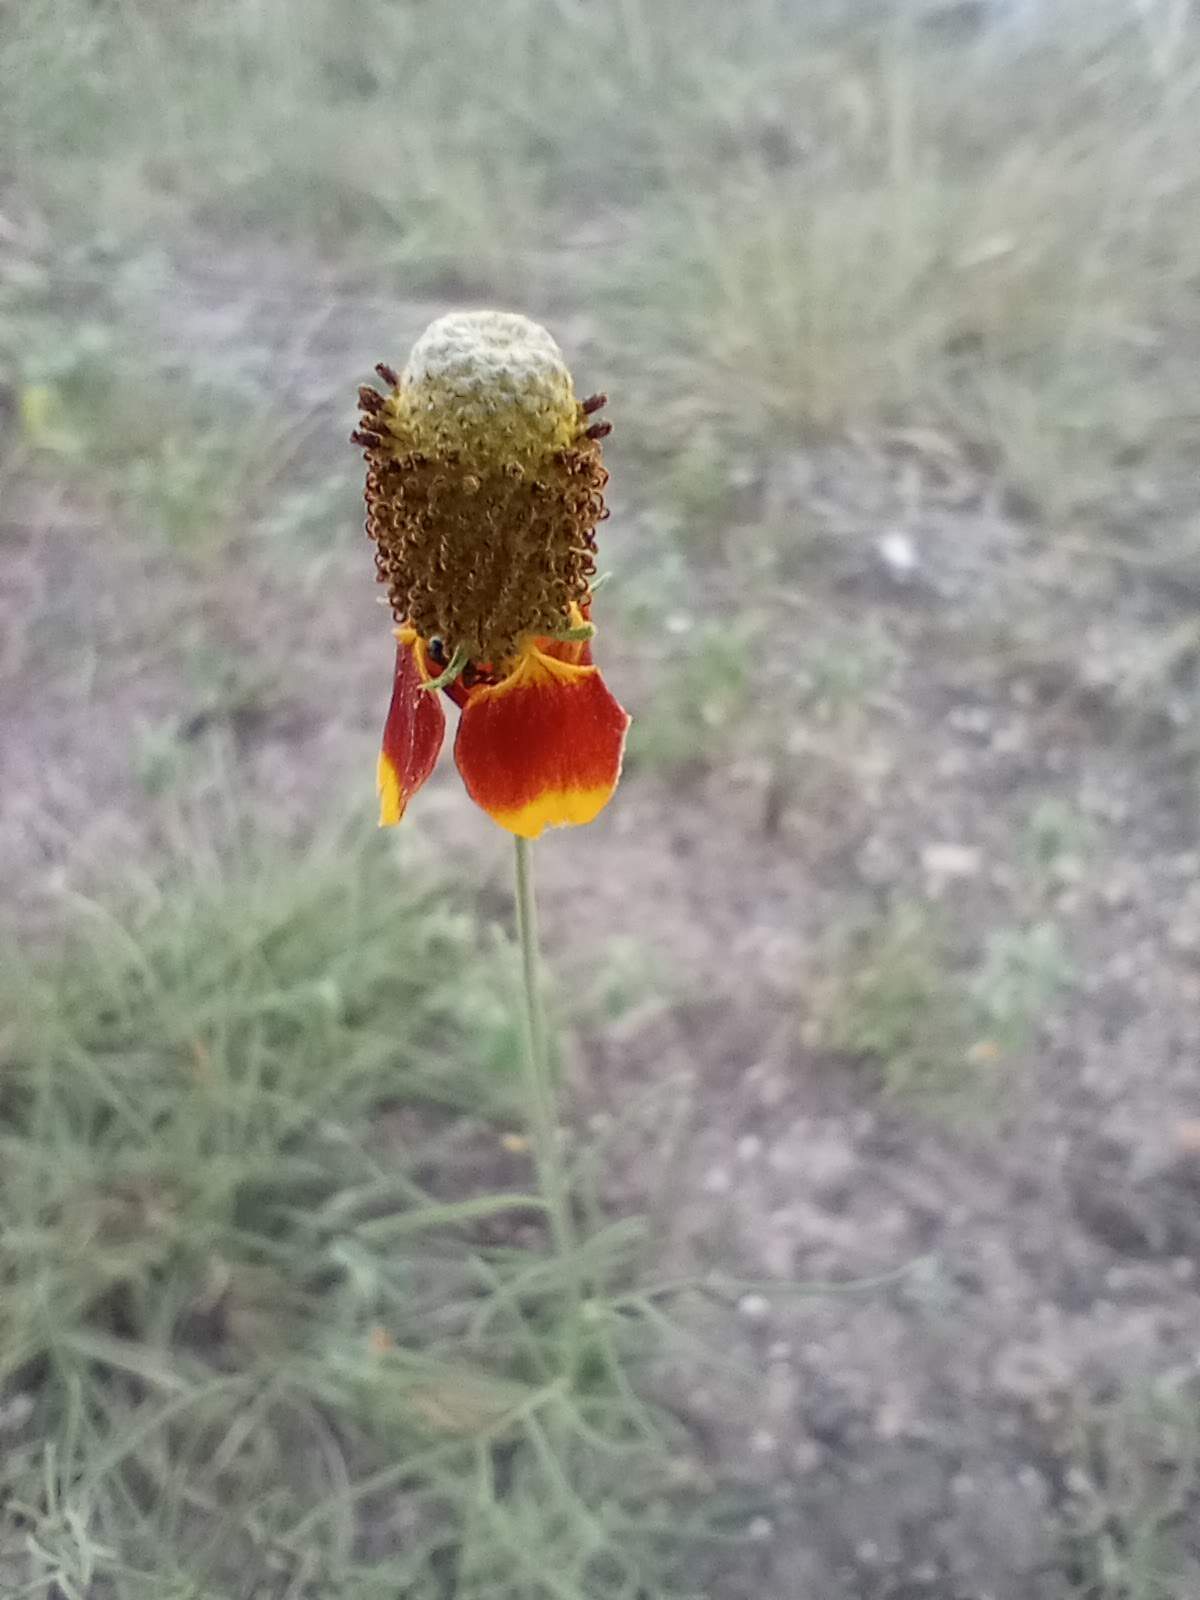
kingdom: Plantae
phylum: Tracheophyta
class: Magnoliopsida
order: Asterales
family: Asteraceae
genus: Ratibida
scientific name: Ratibida columnifera
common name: Prairie coneflower
